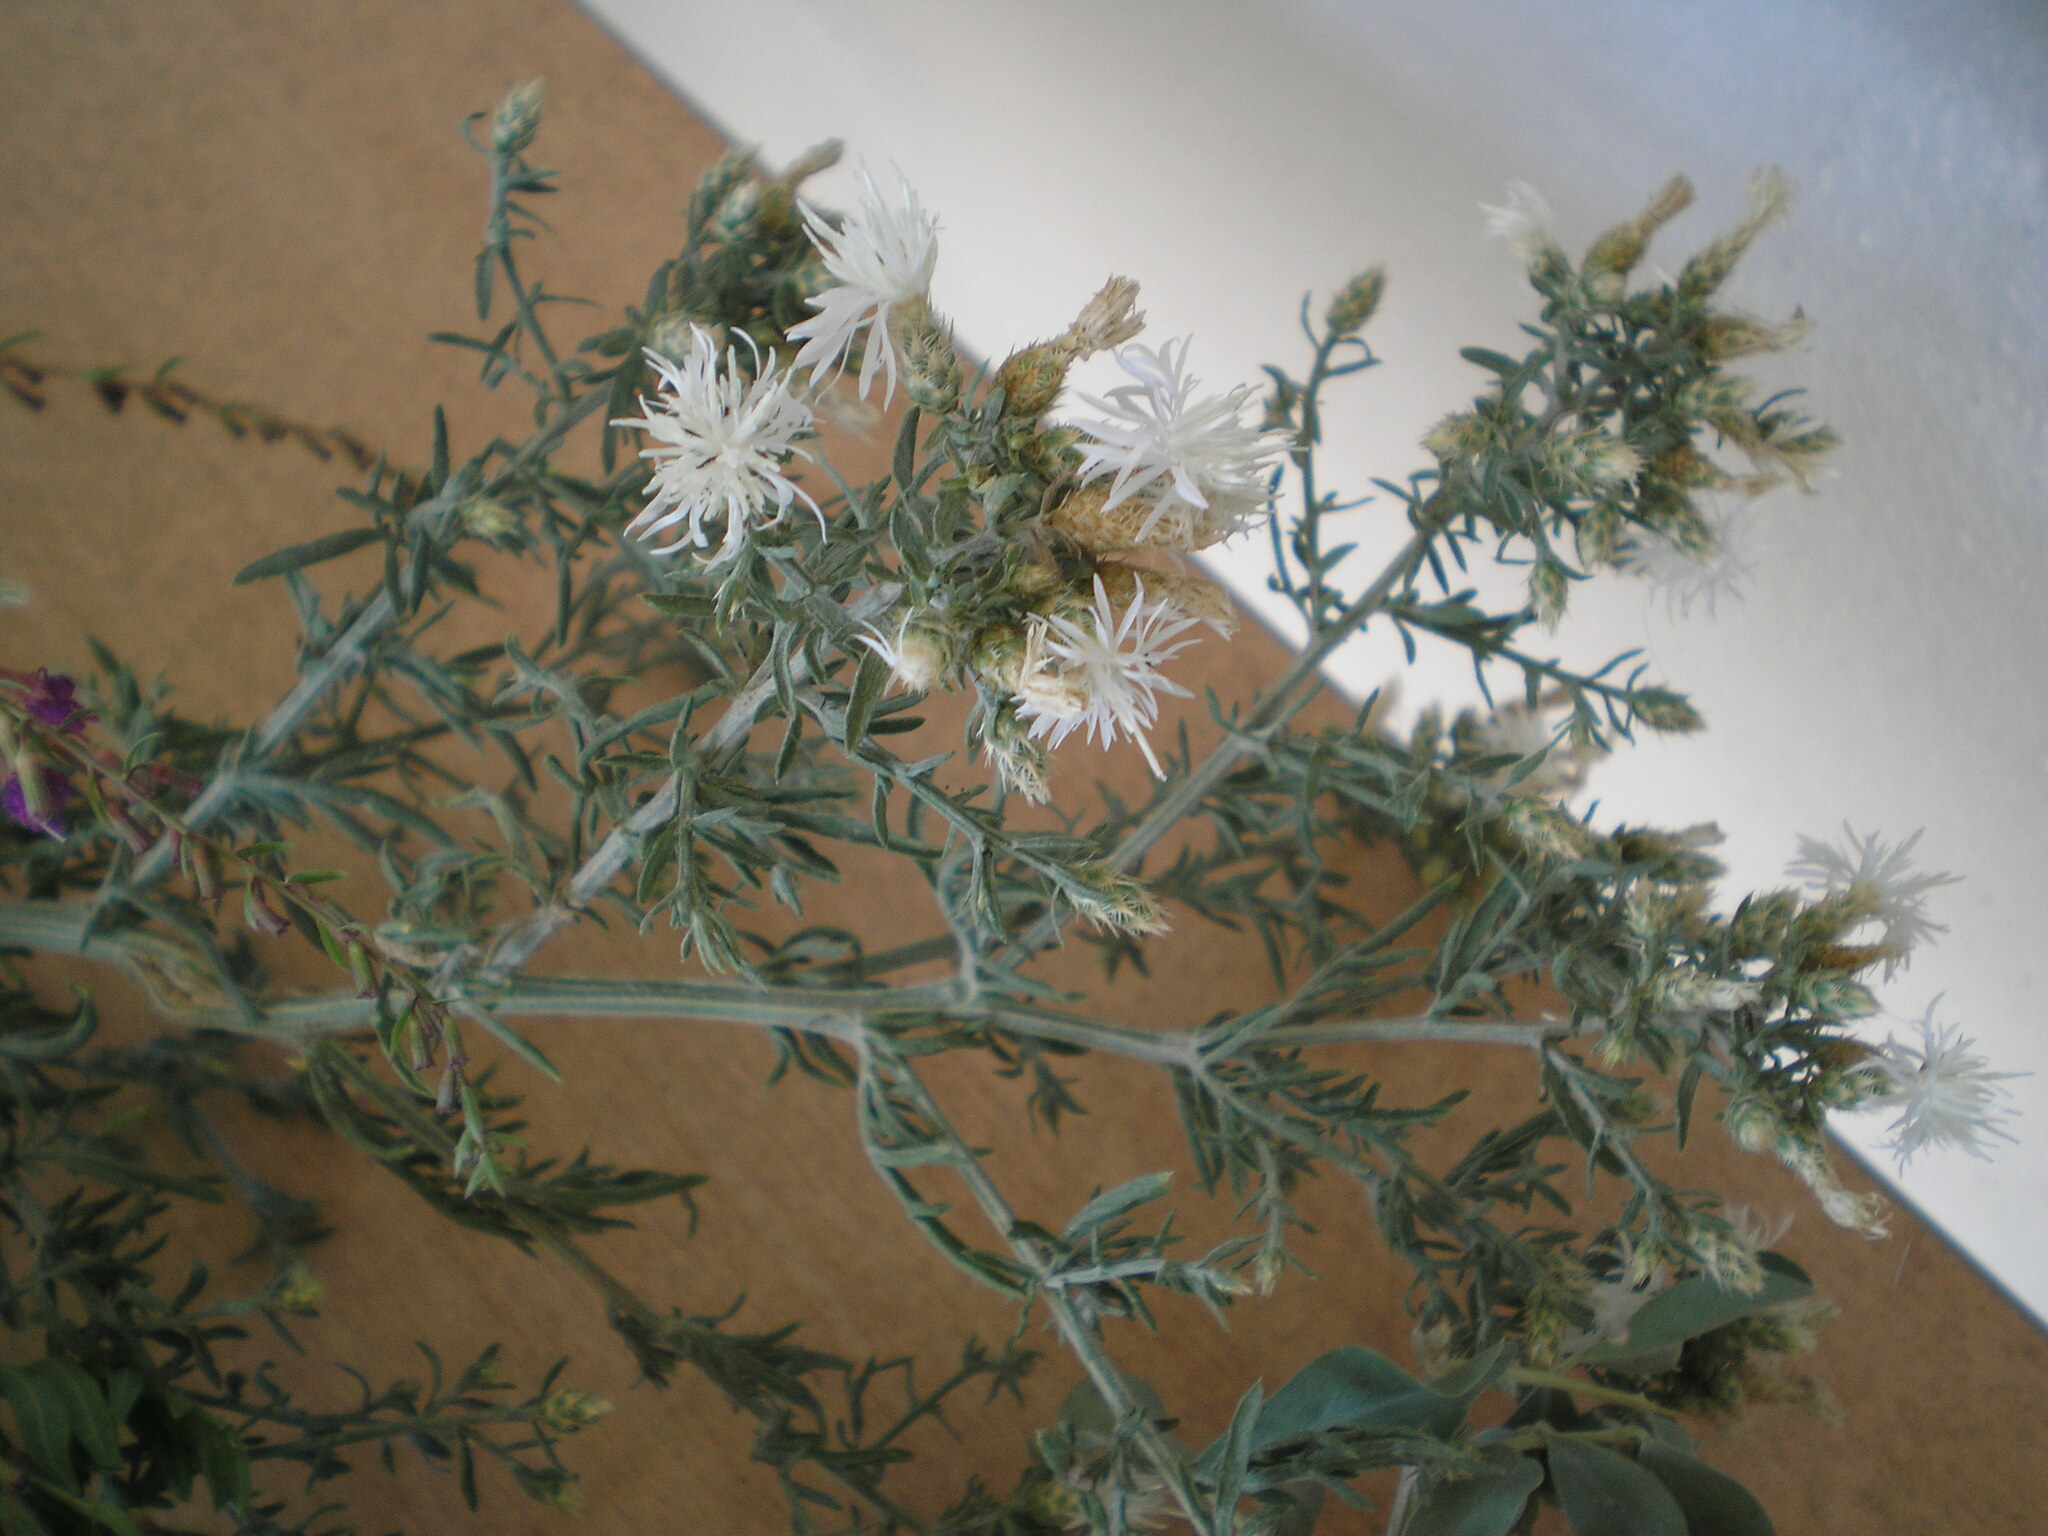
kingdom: Plantae
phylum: Tracheophyta
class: Magnoliopsida
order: Asterales
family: Asteraceae
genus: Centaurea
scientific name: Centaurea diffusa
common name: Diffuse knapweed
